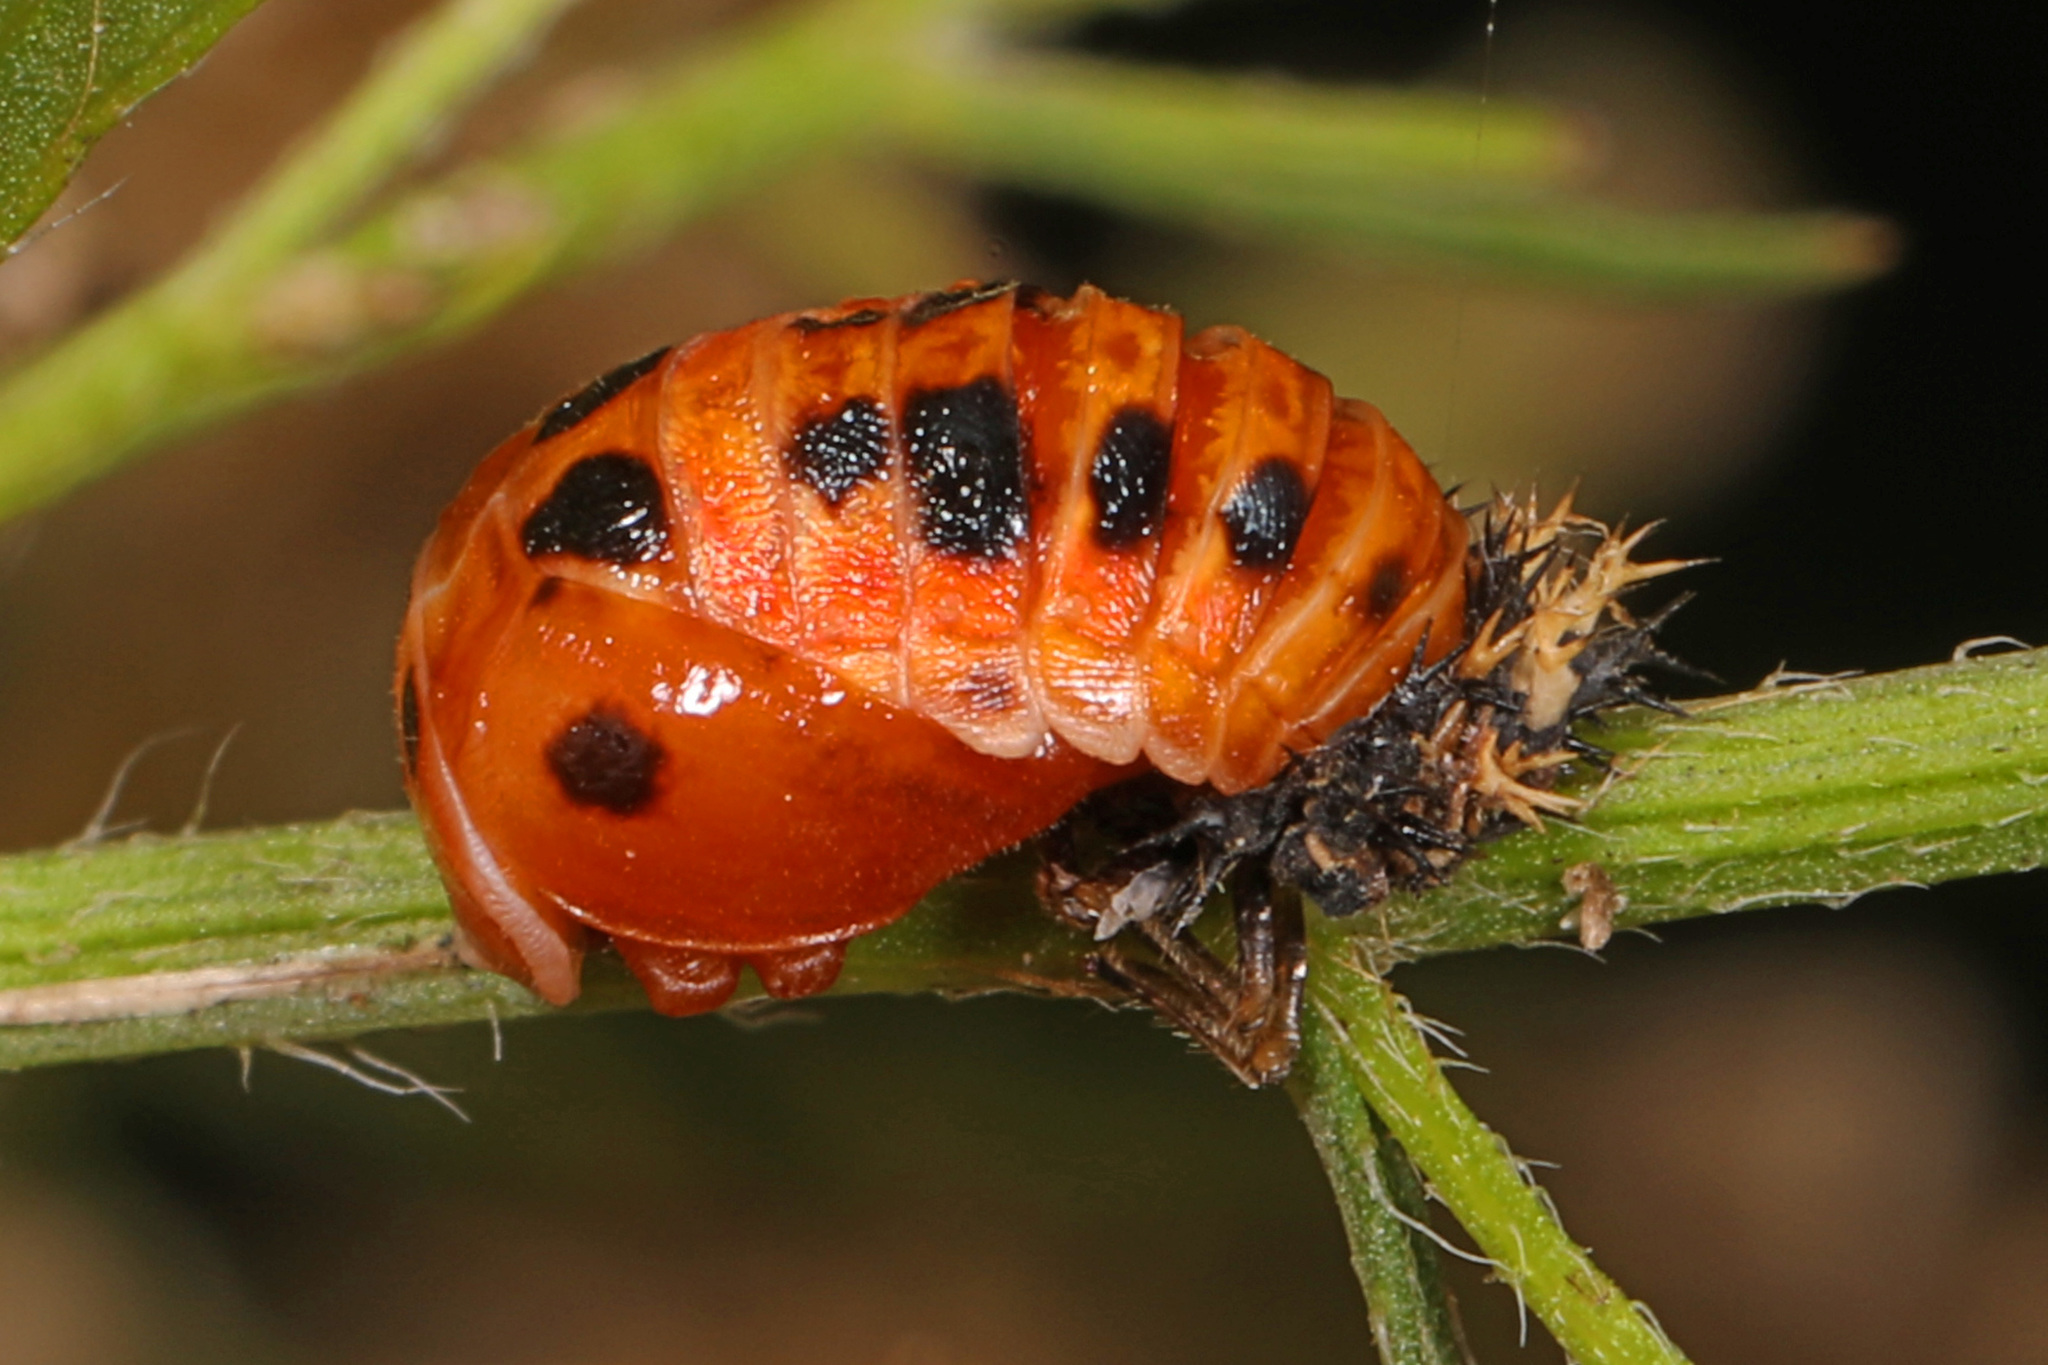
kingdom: Animalia
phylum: Arthropoda
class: Insecta
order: Coleoptera
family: Coccinellidae
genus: Harmonia
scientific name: Harmonia axyridis
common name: Harlequin ladybird
